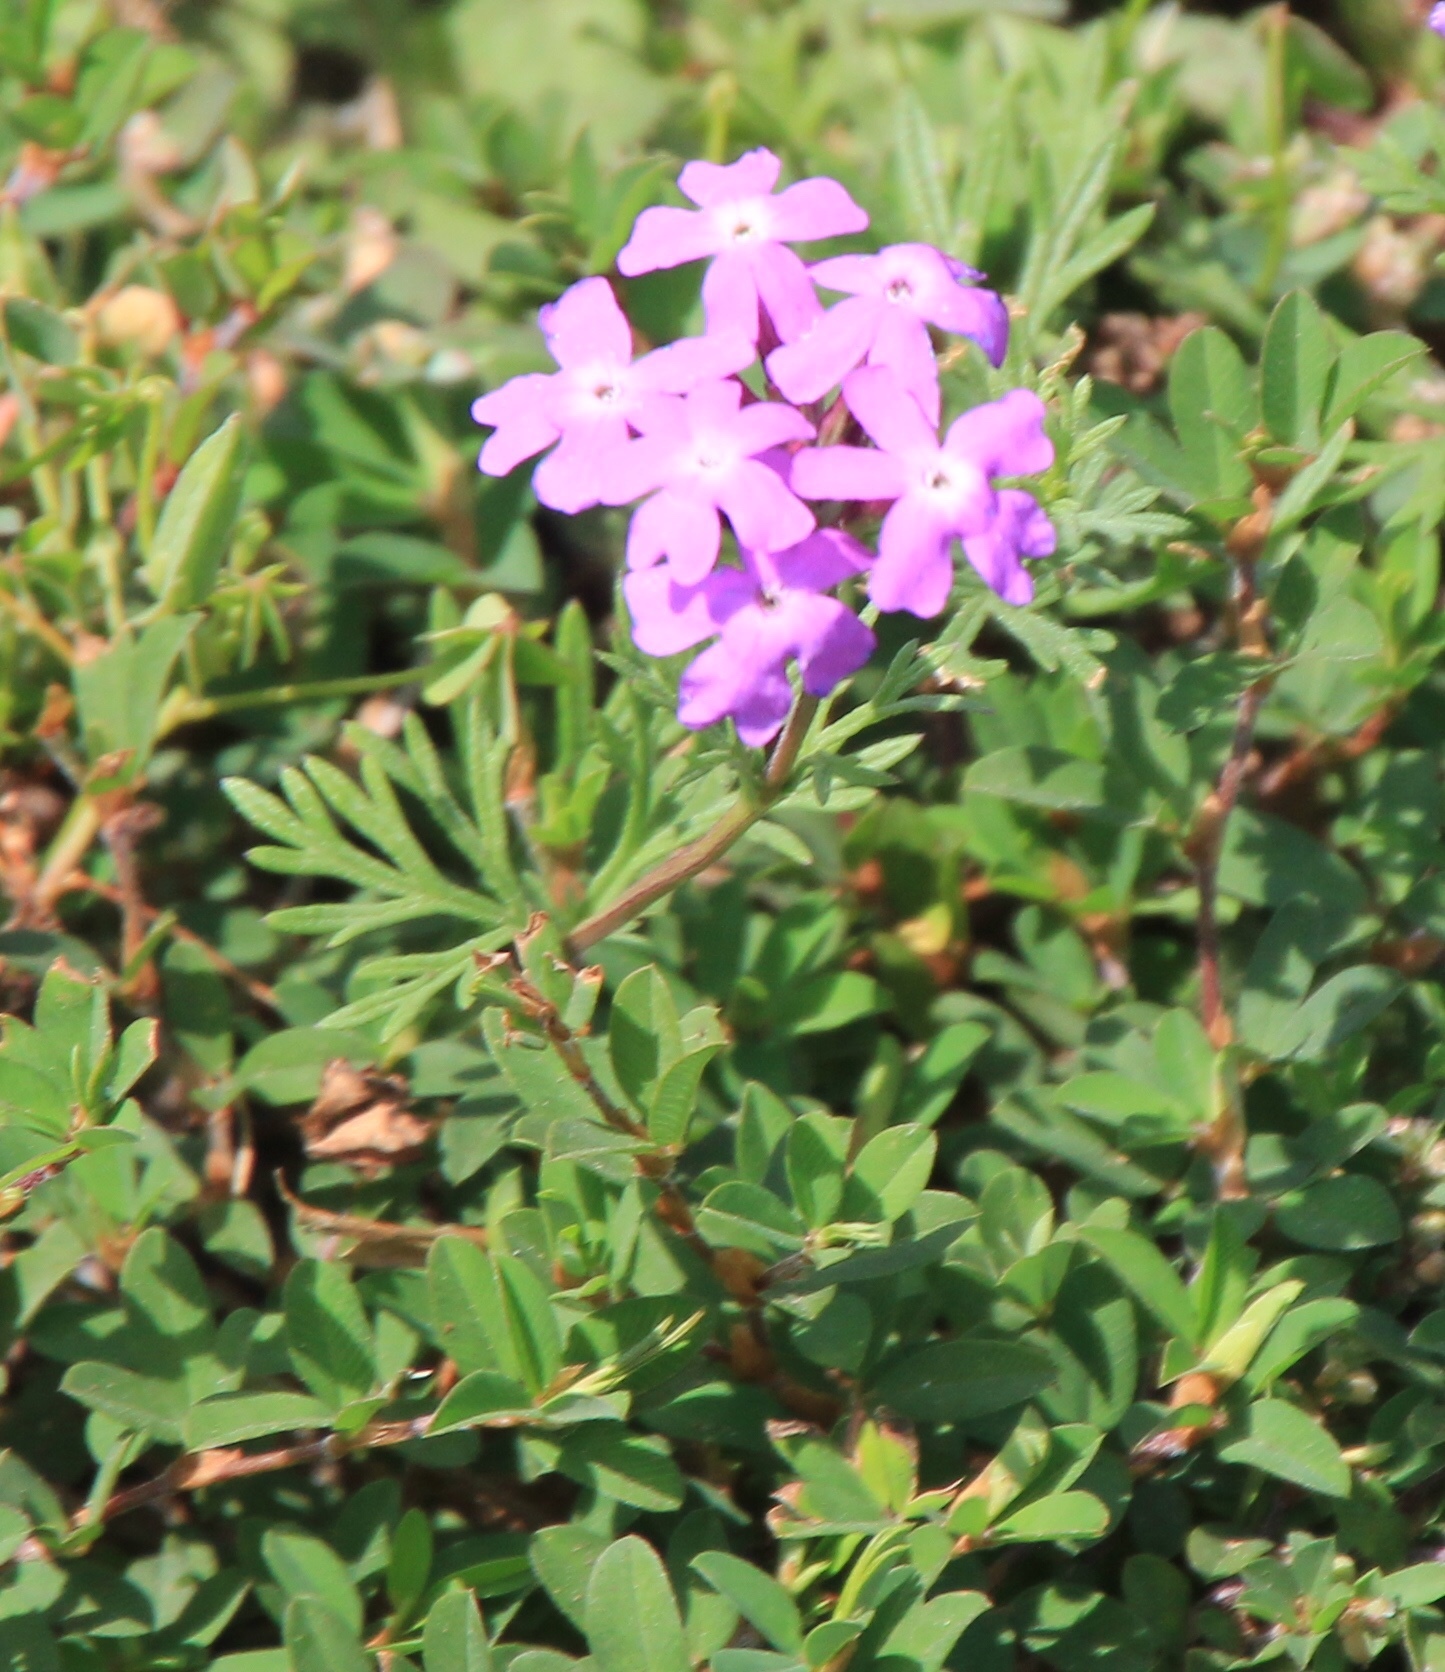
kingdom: Plantae
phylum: Tracheophyta
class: Magnoliopsida
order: Lamiales
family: Verbenaceae
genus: Verbena
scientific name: Verbena aristigera
